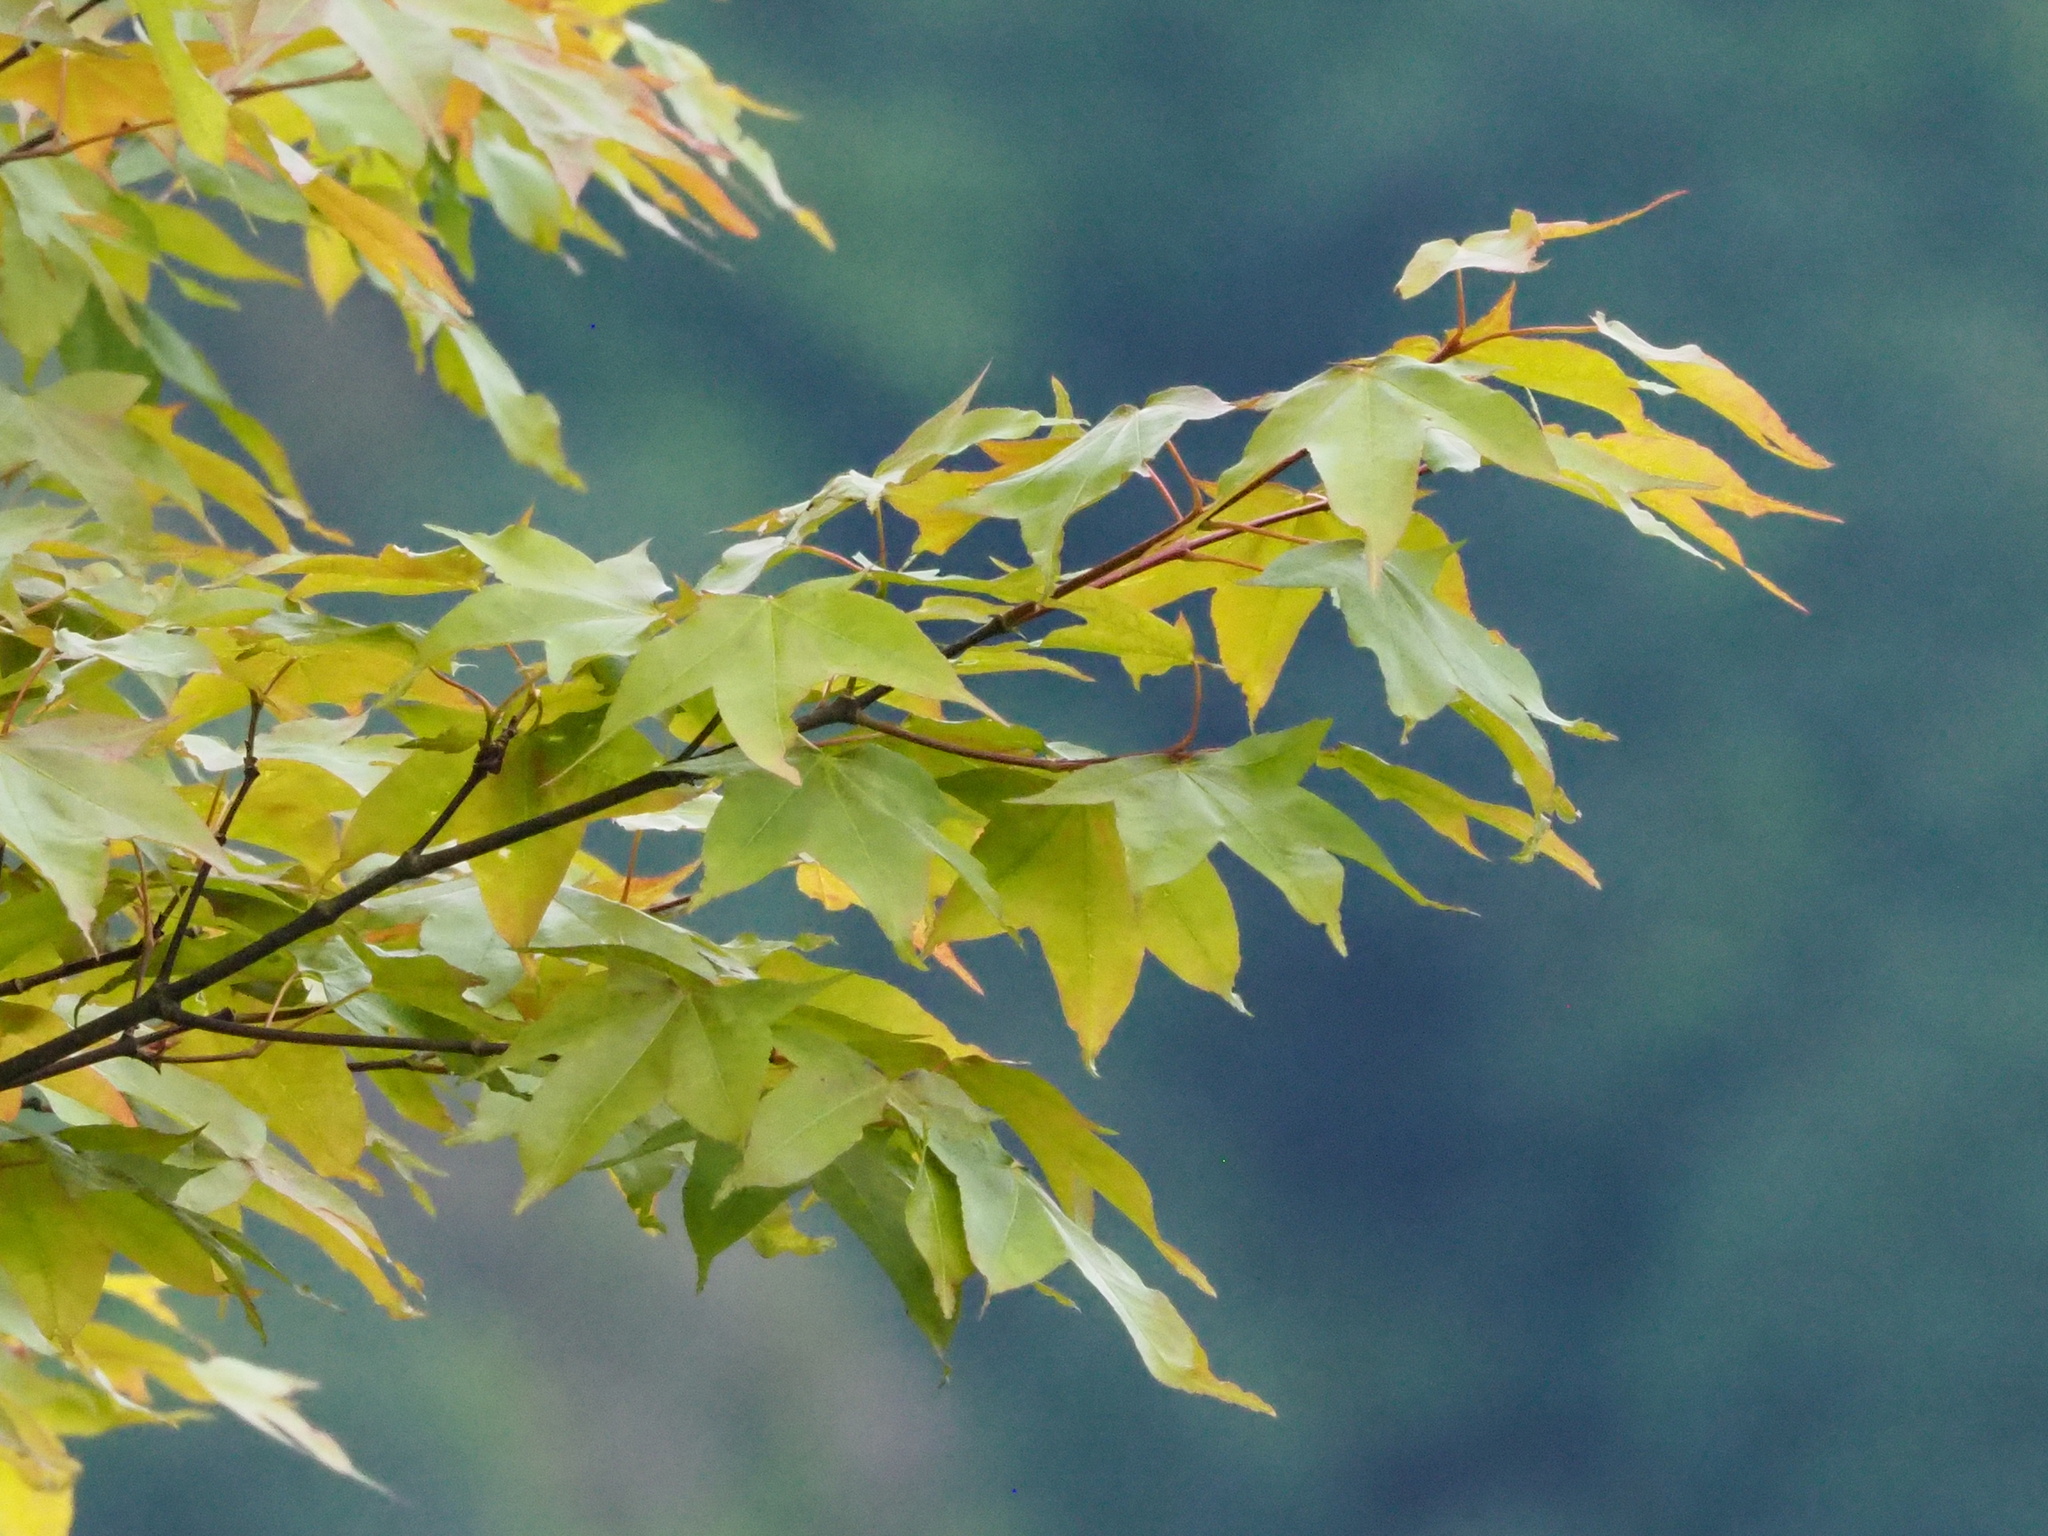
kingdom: Plantae
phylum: Tracheophyta
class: Magnoliopsida
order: Sapindales
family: Sapindaceae
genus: Acer
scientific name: Acer serrulatum
